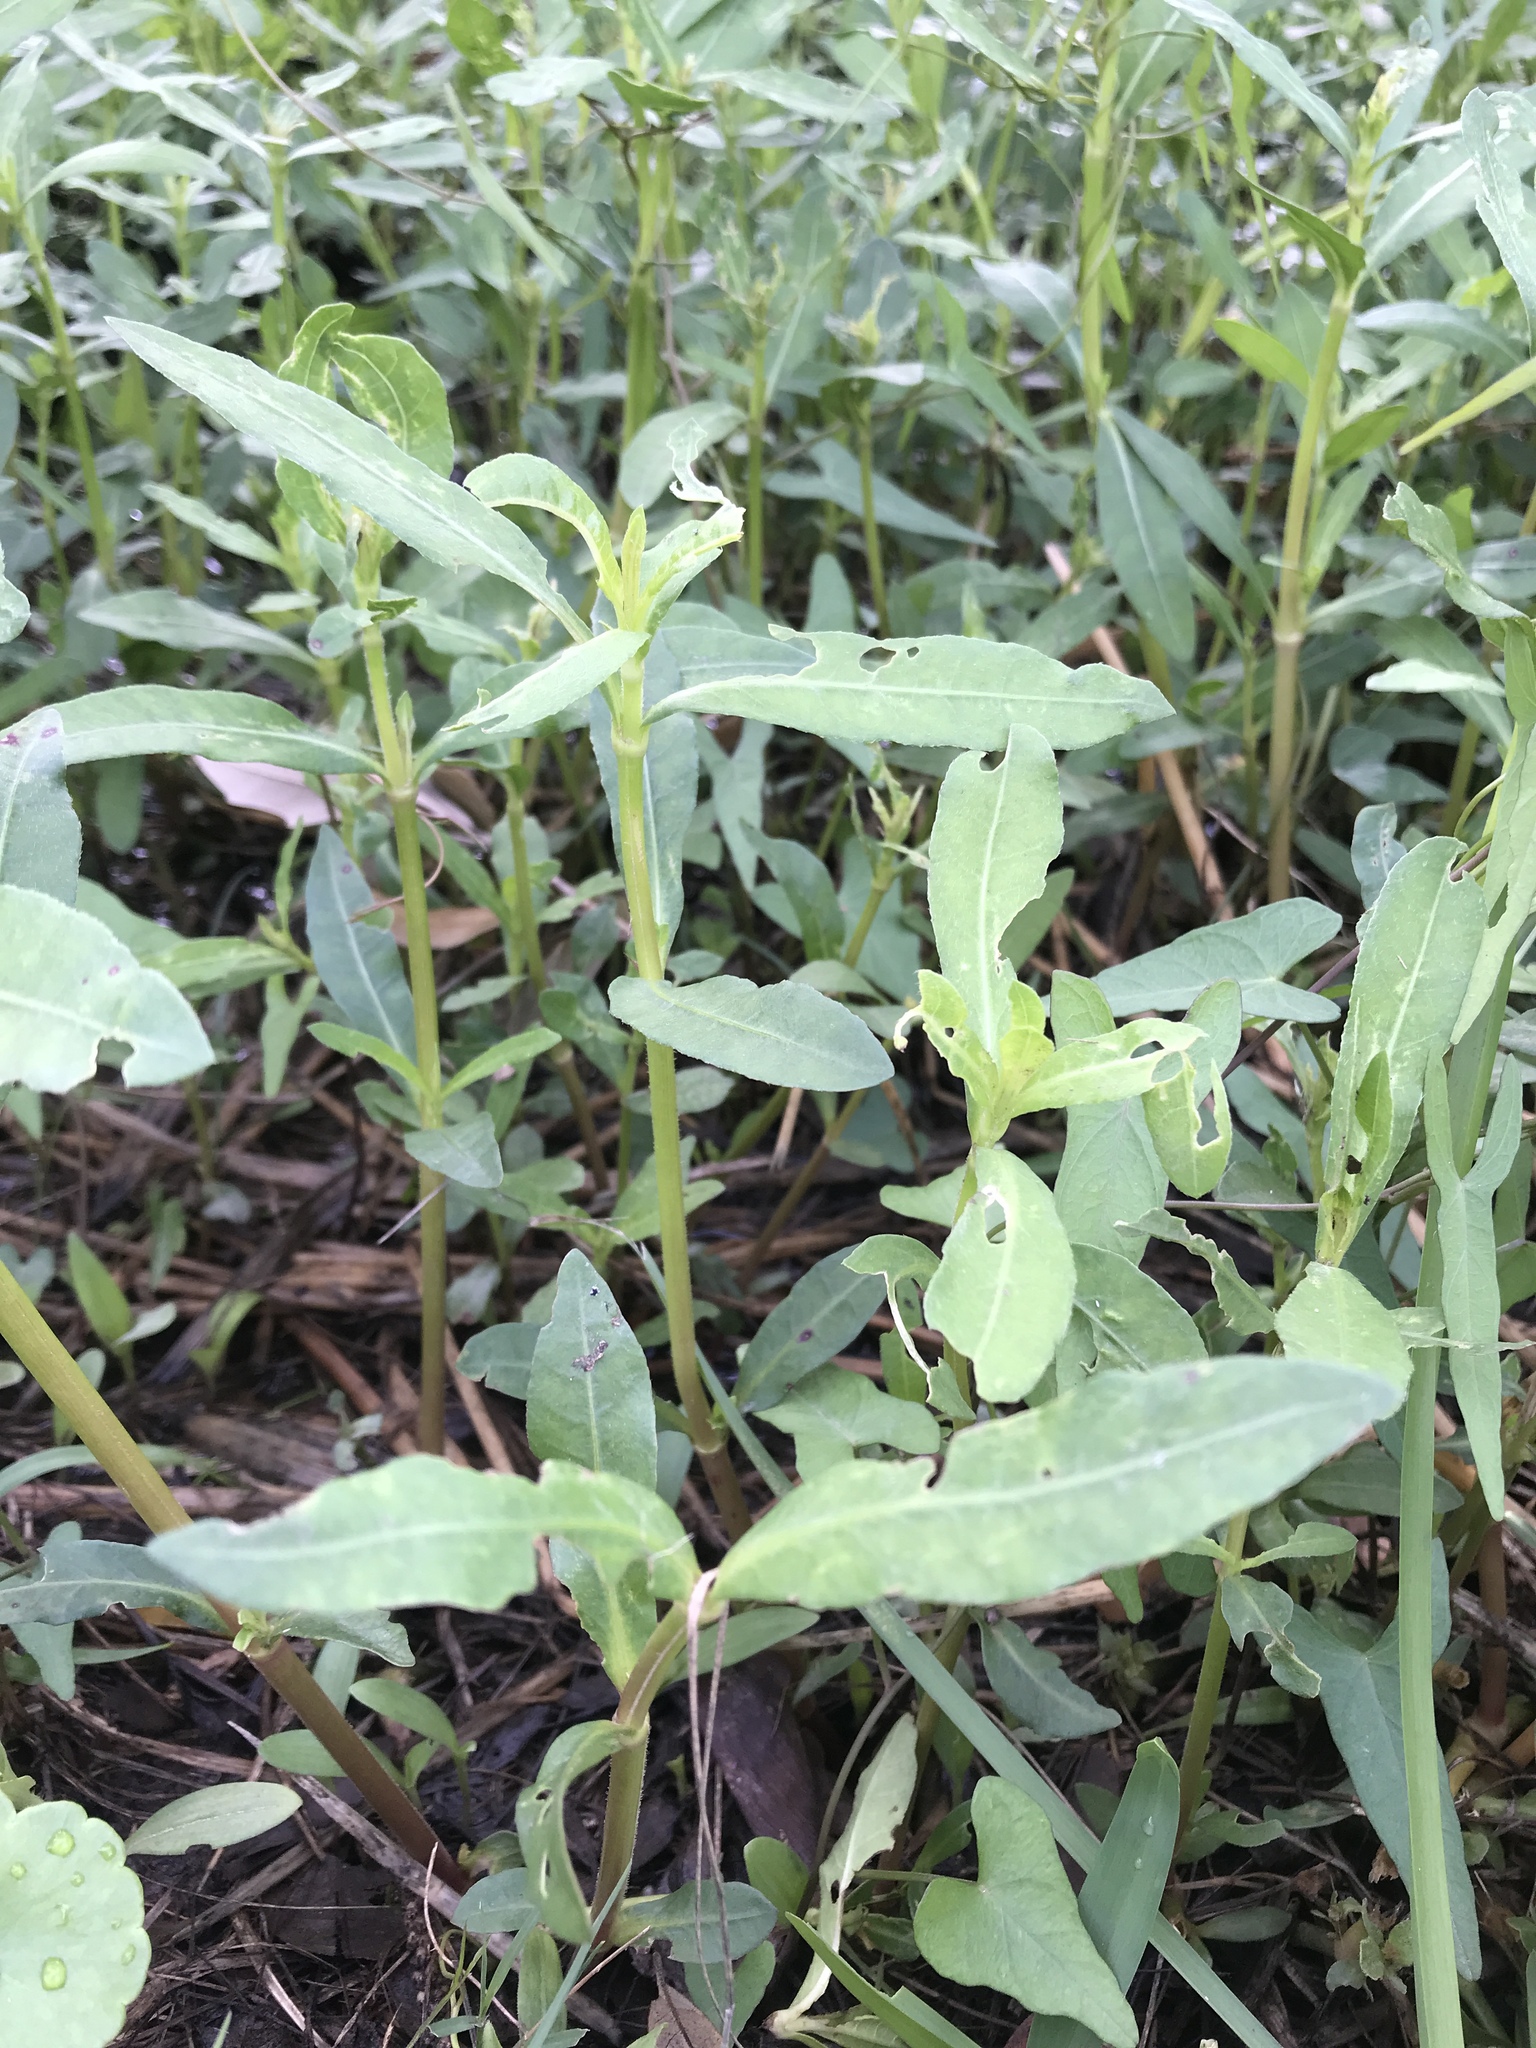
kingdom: Plantae
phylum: Tracheophyta
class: Magnoliopsida
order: Caryophyllales
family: Amaranthaceae
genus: Alternanthera
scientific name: Alternanthera philoxeroides
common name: Alligatorweed
